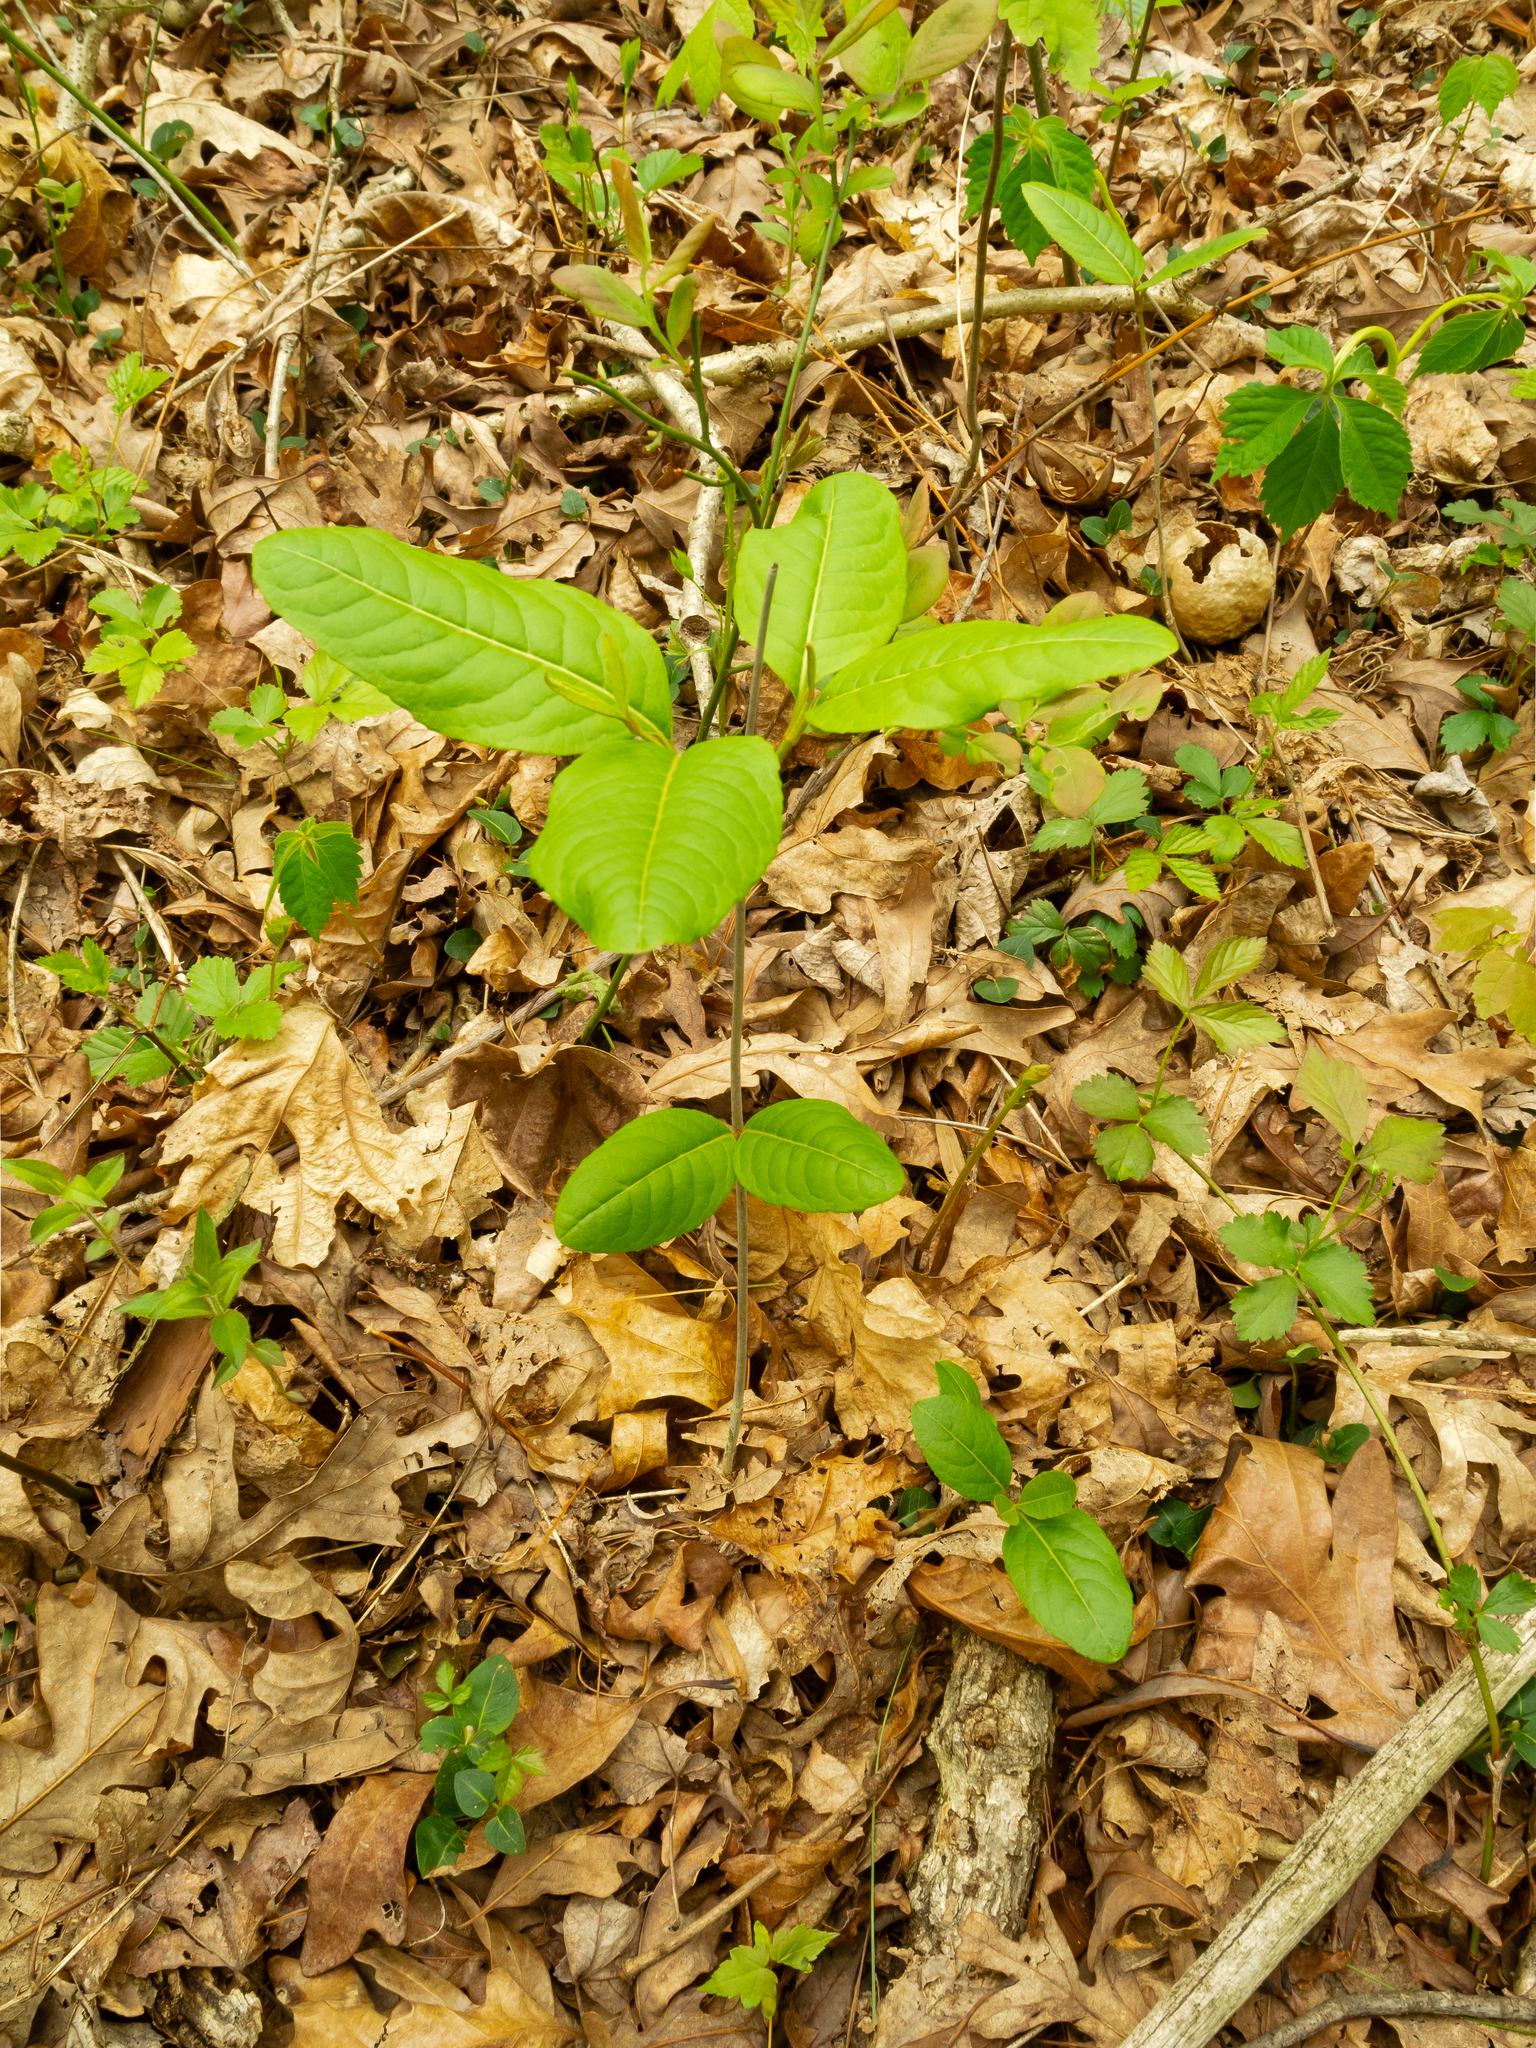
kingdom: Plantae
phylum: Tracheophyta
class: Magnoliopsida
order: Dipsacales
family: Caprifoliaceae
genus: Lonicera
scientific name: Lonicera sempervirens
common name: Coral honeysuckle
